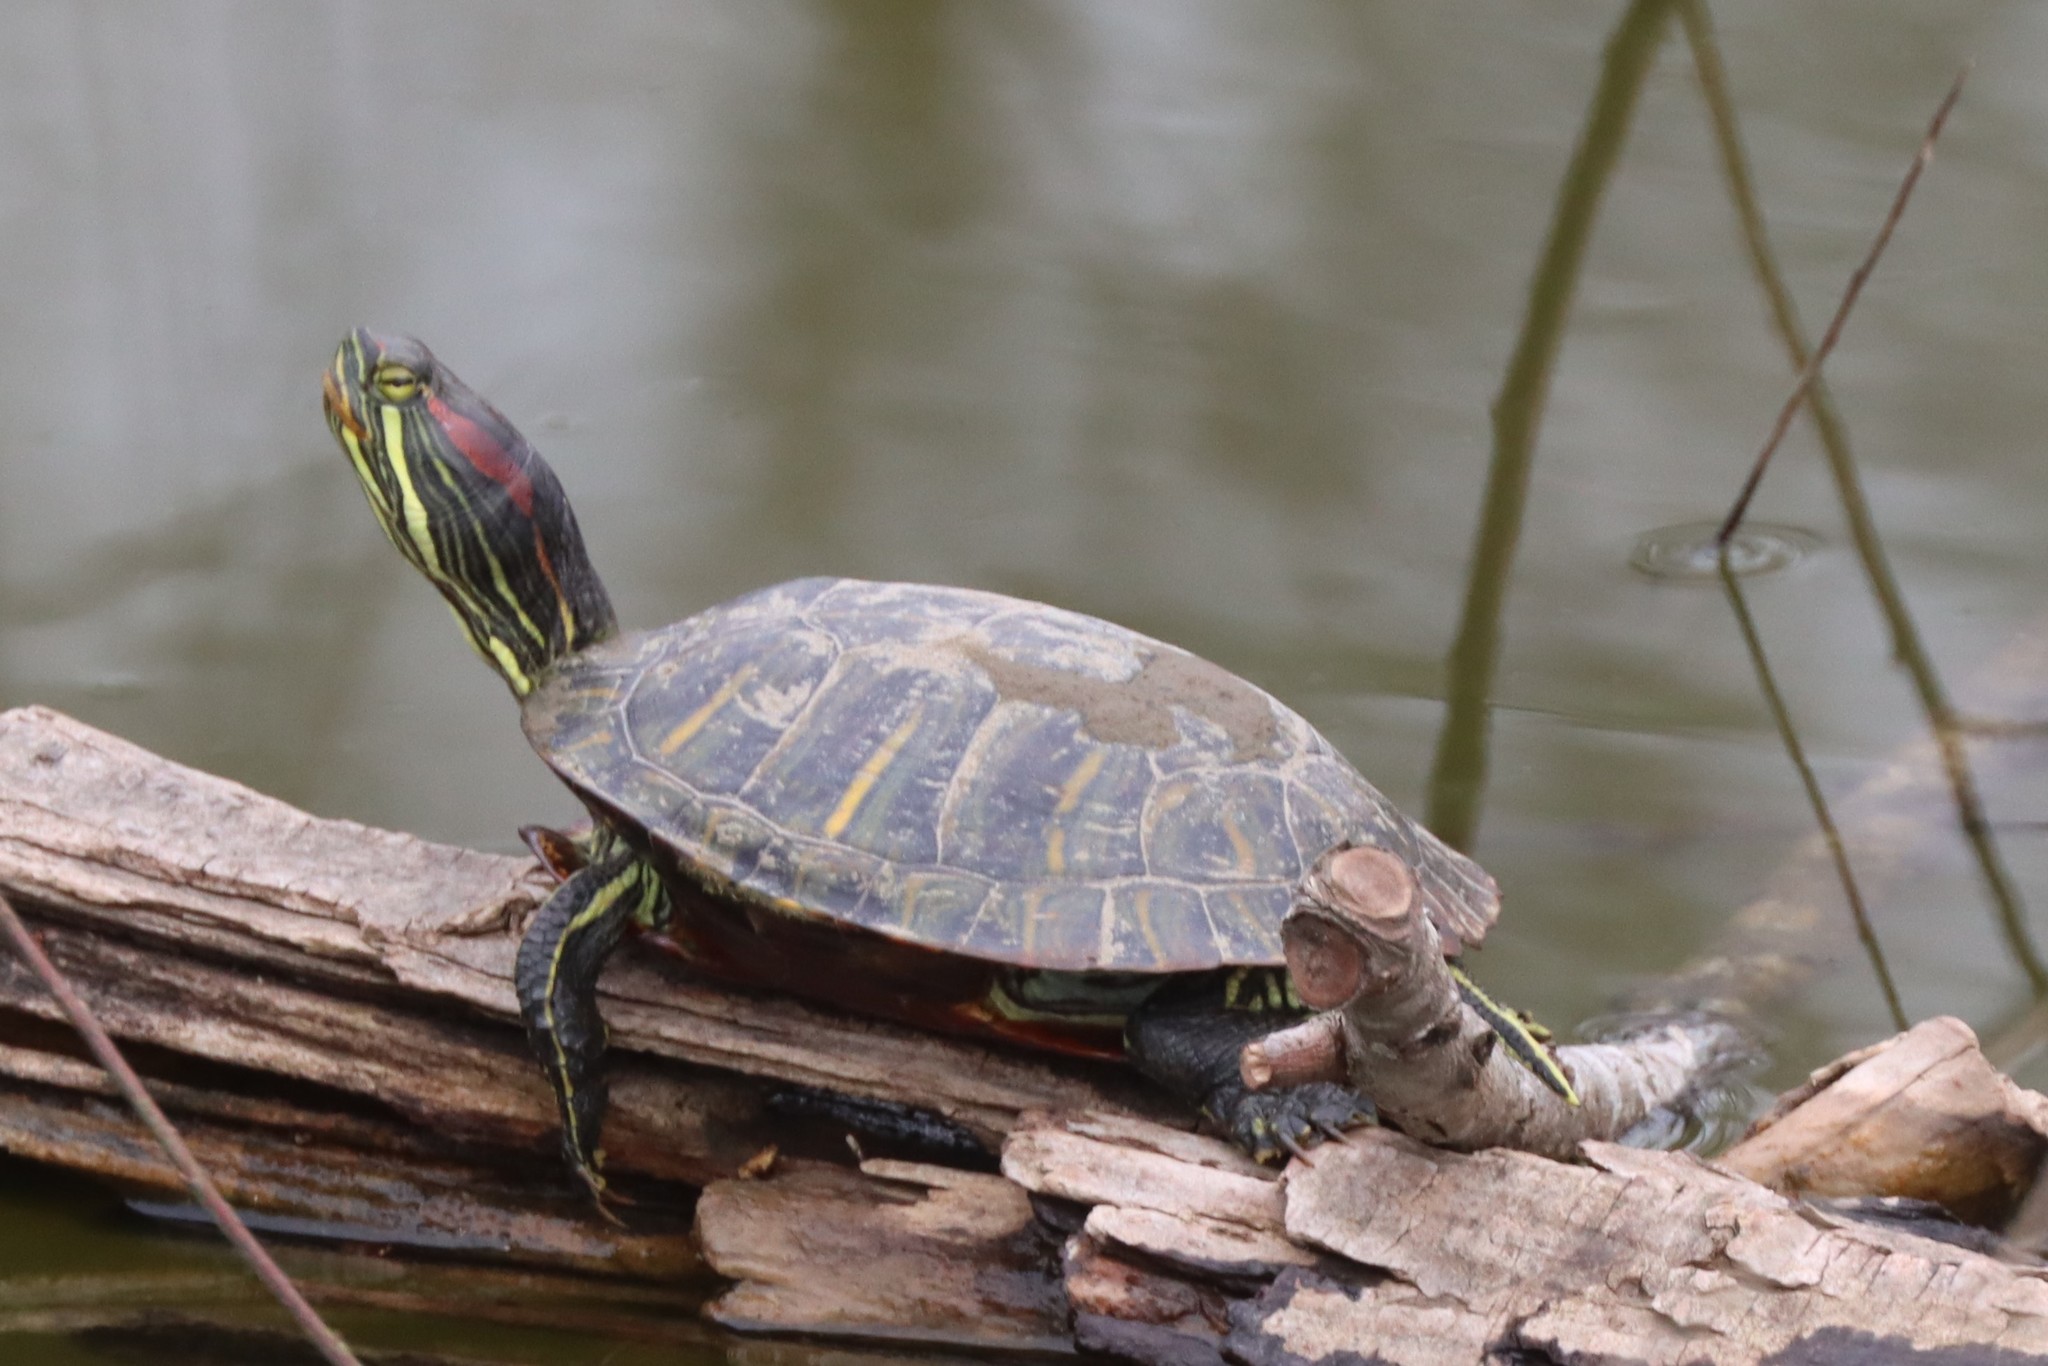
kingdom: Animalia
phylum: Chordata
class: Testudines
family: Emydidae
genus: Trachemys
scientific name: Trachemys scripta
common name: Slider
